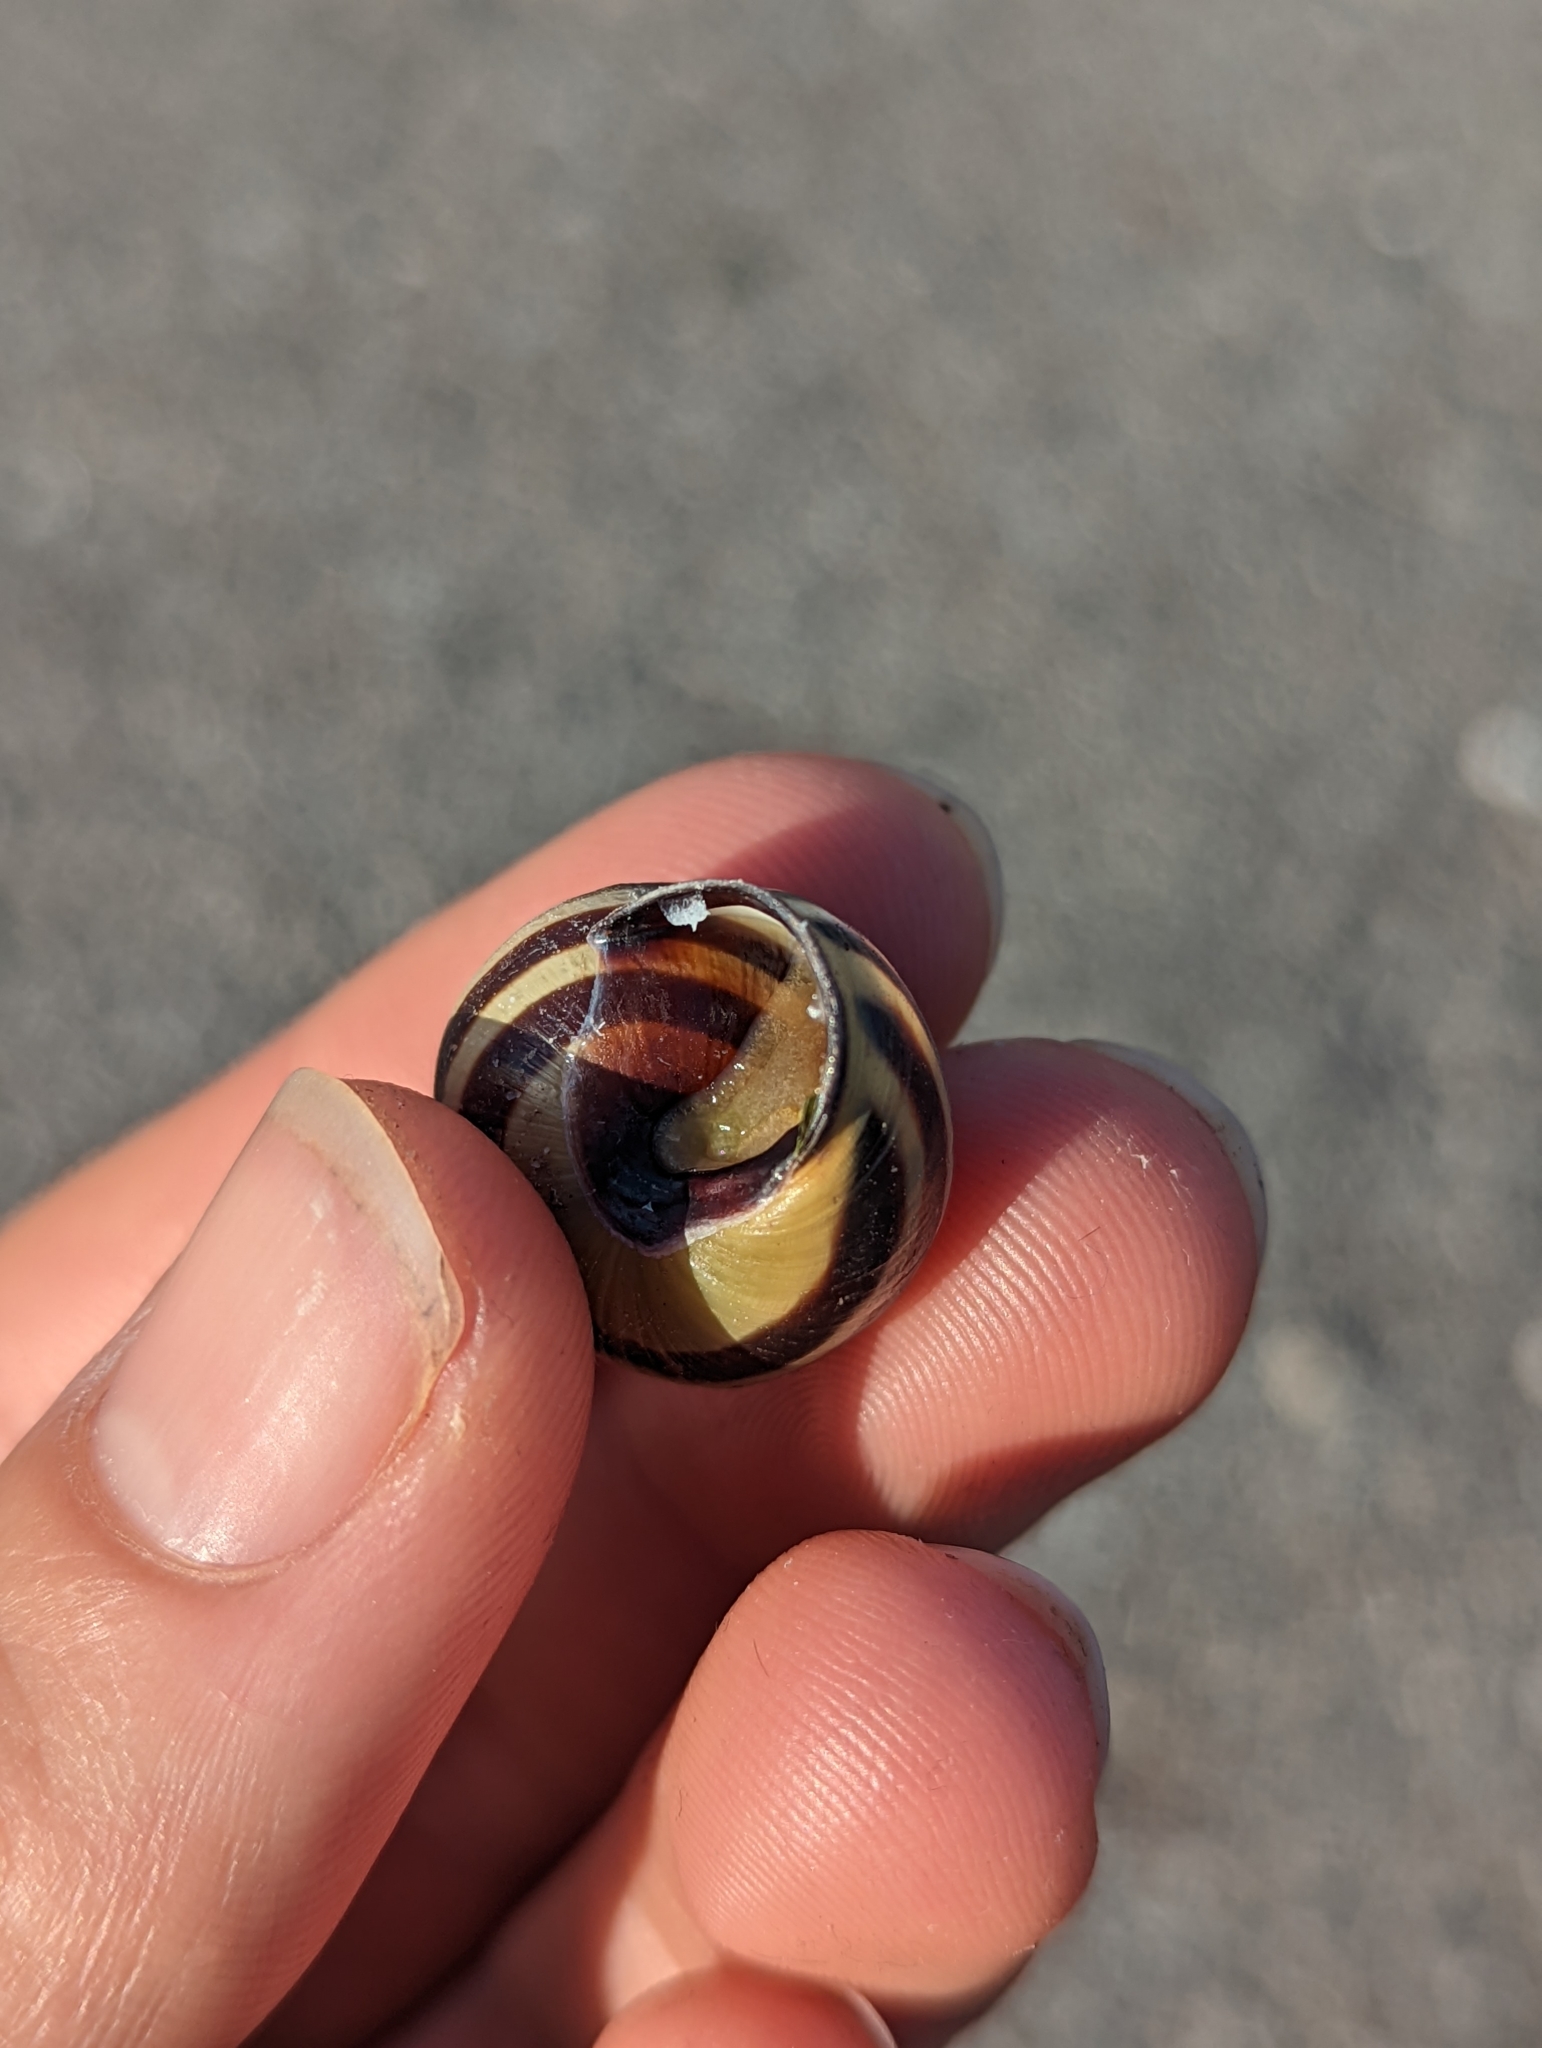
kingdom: Animalia
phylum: Mollusca
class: Gastropoda
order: Stylommatophora
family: Helicidae
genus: Cepaea
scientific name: Cepaea nemoralis
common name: Grovesnail
